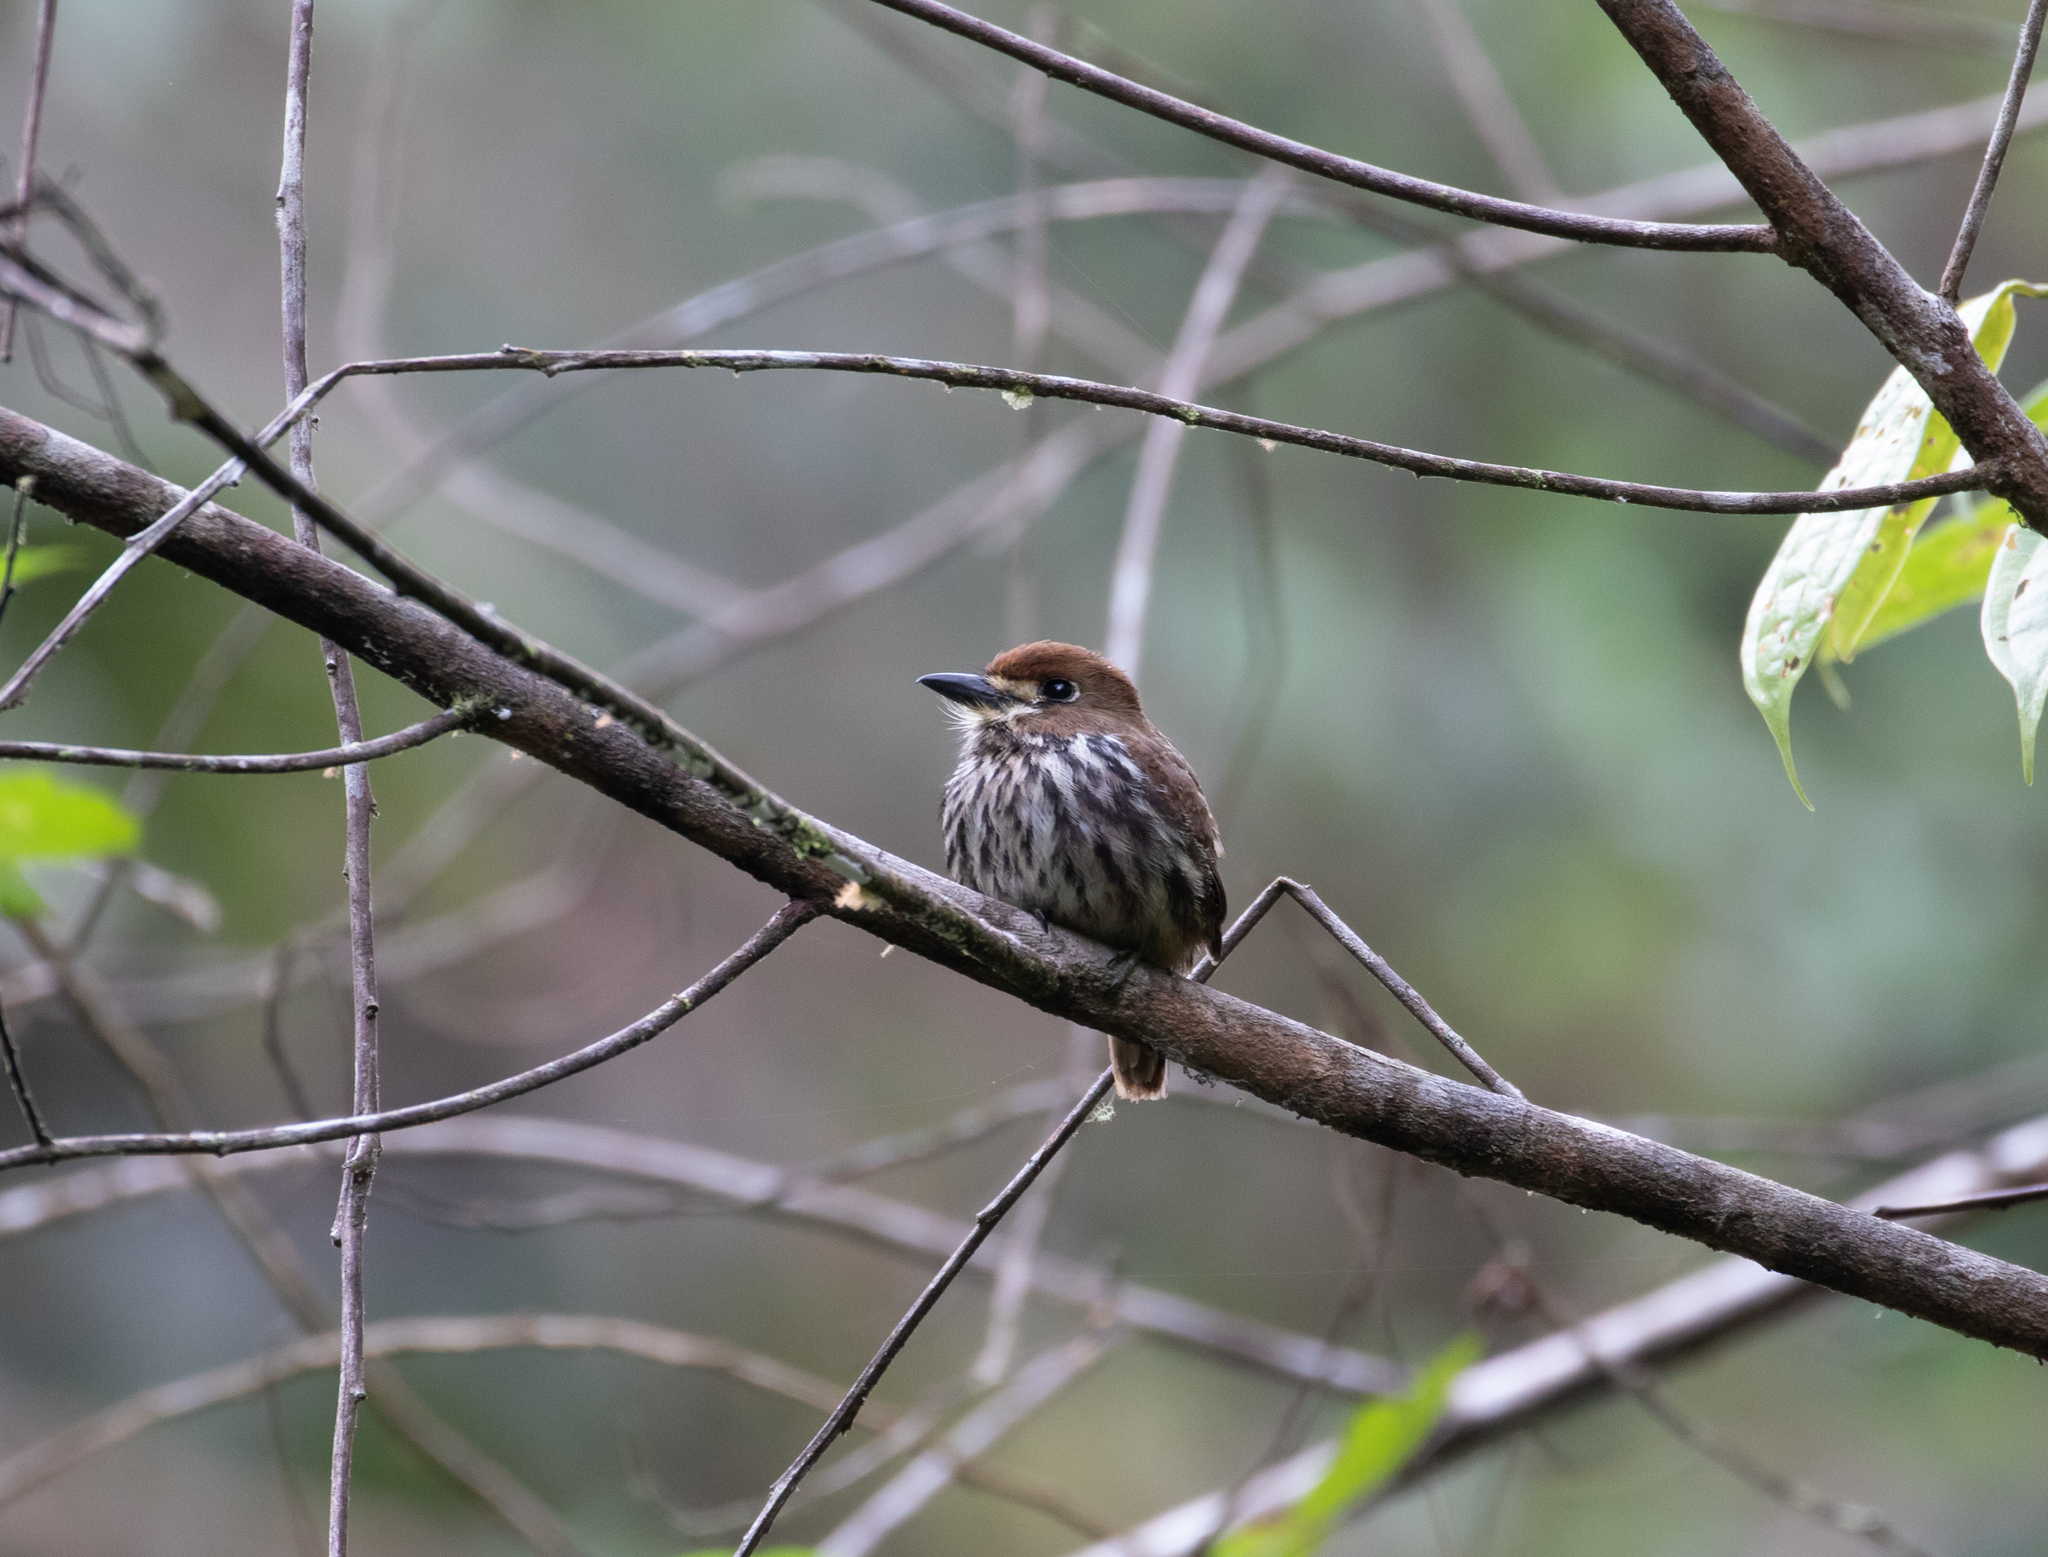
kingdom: Animalia
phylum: Chordata
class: Aves
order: Piciformes
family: Bucconidae
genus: Micromonacha
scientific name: Micromonacha lanceolata
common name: Lanceolated monklet
